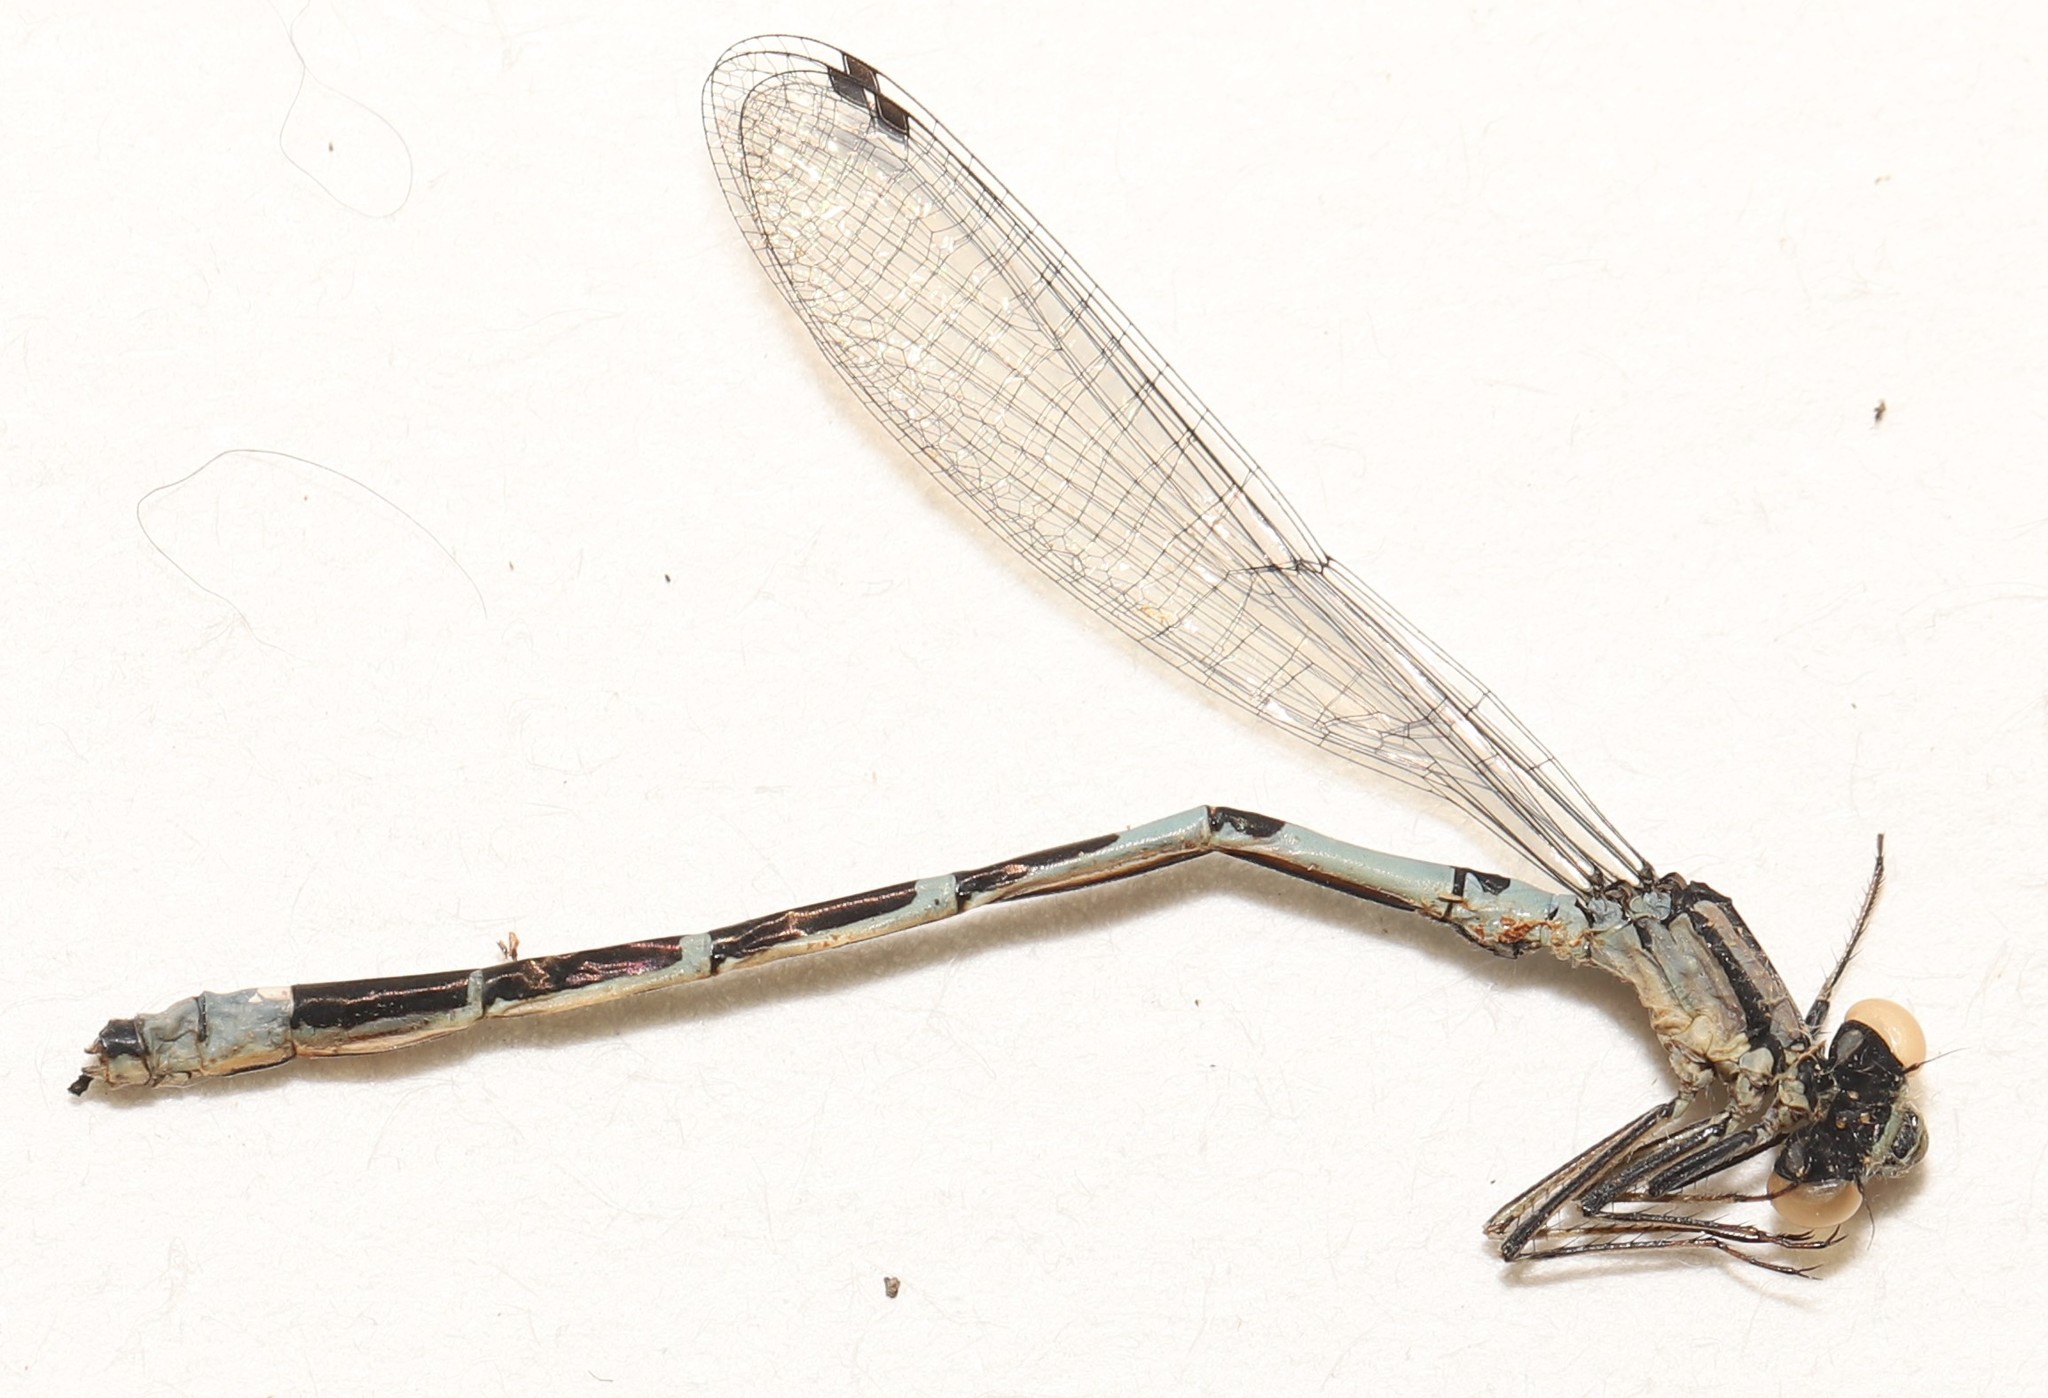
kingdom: Animalia
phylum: Arthropoda
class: Insecta
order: Odonata
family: Coenagrionidae
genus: Enallagma
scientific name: Enallagma hageni
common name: Hagen's bluet
